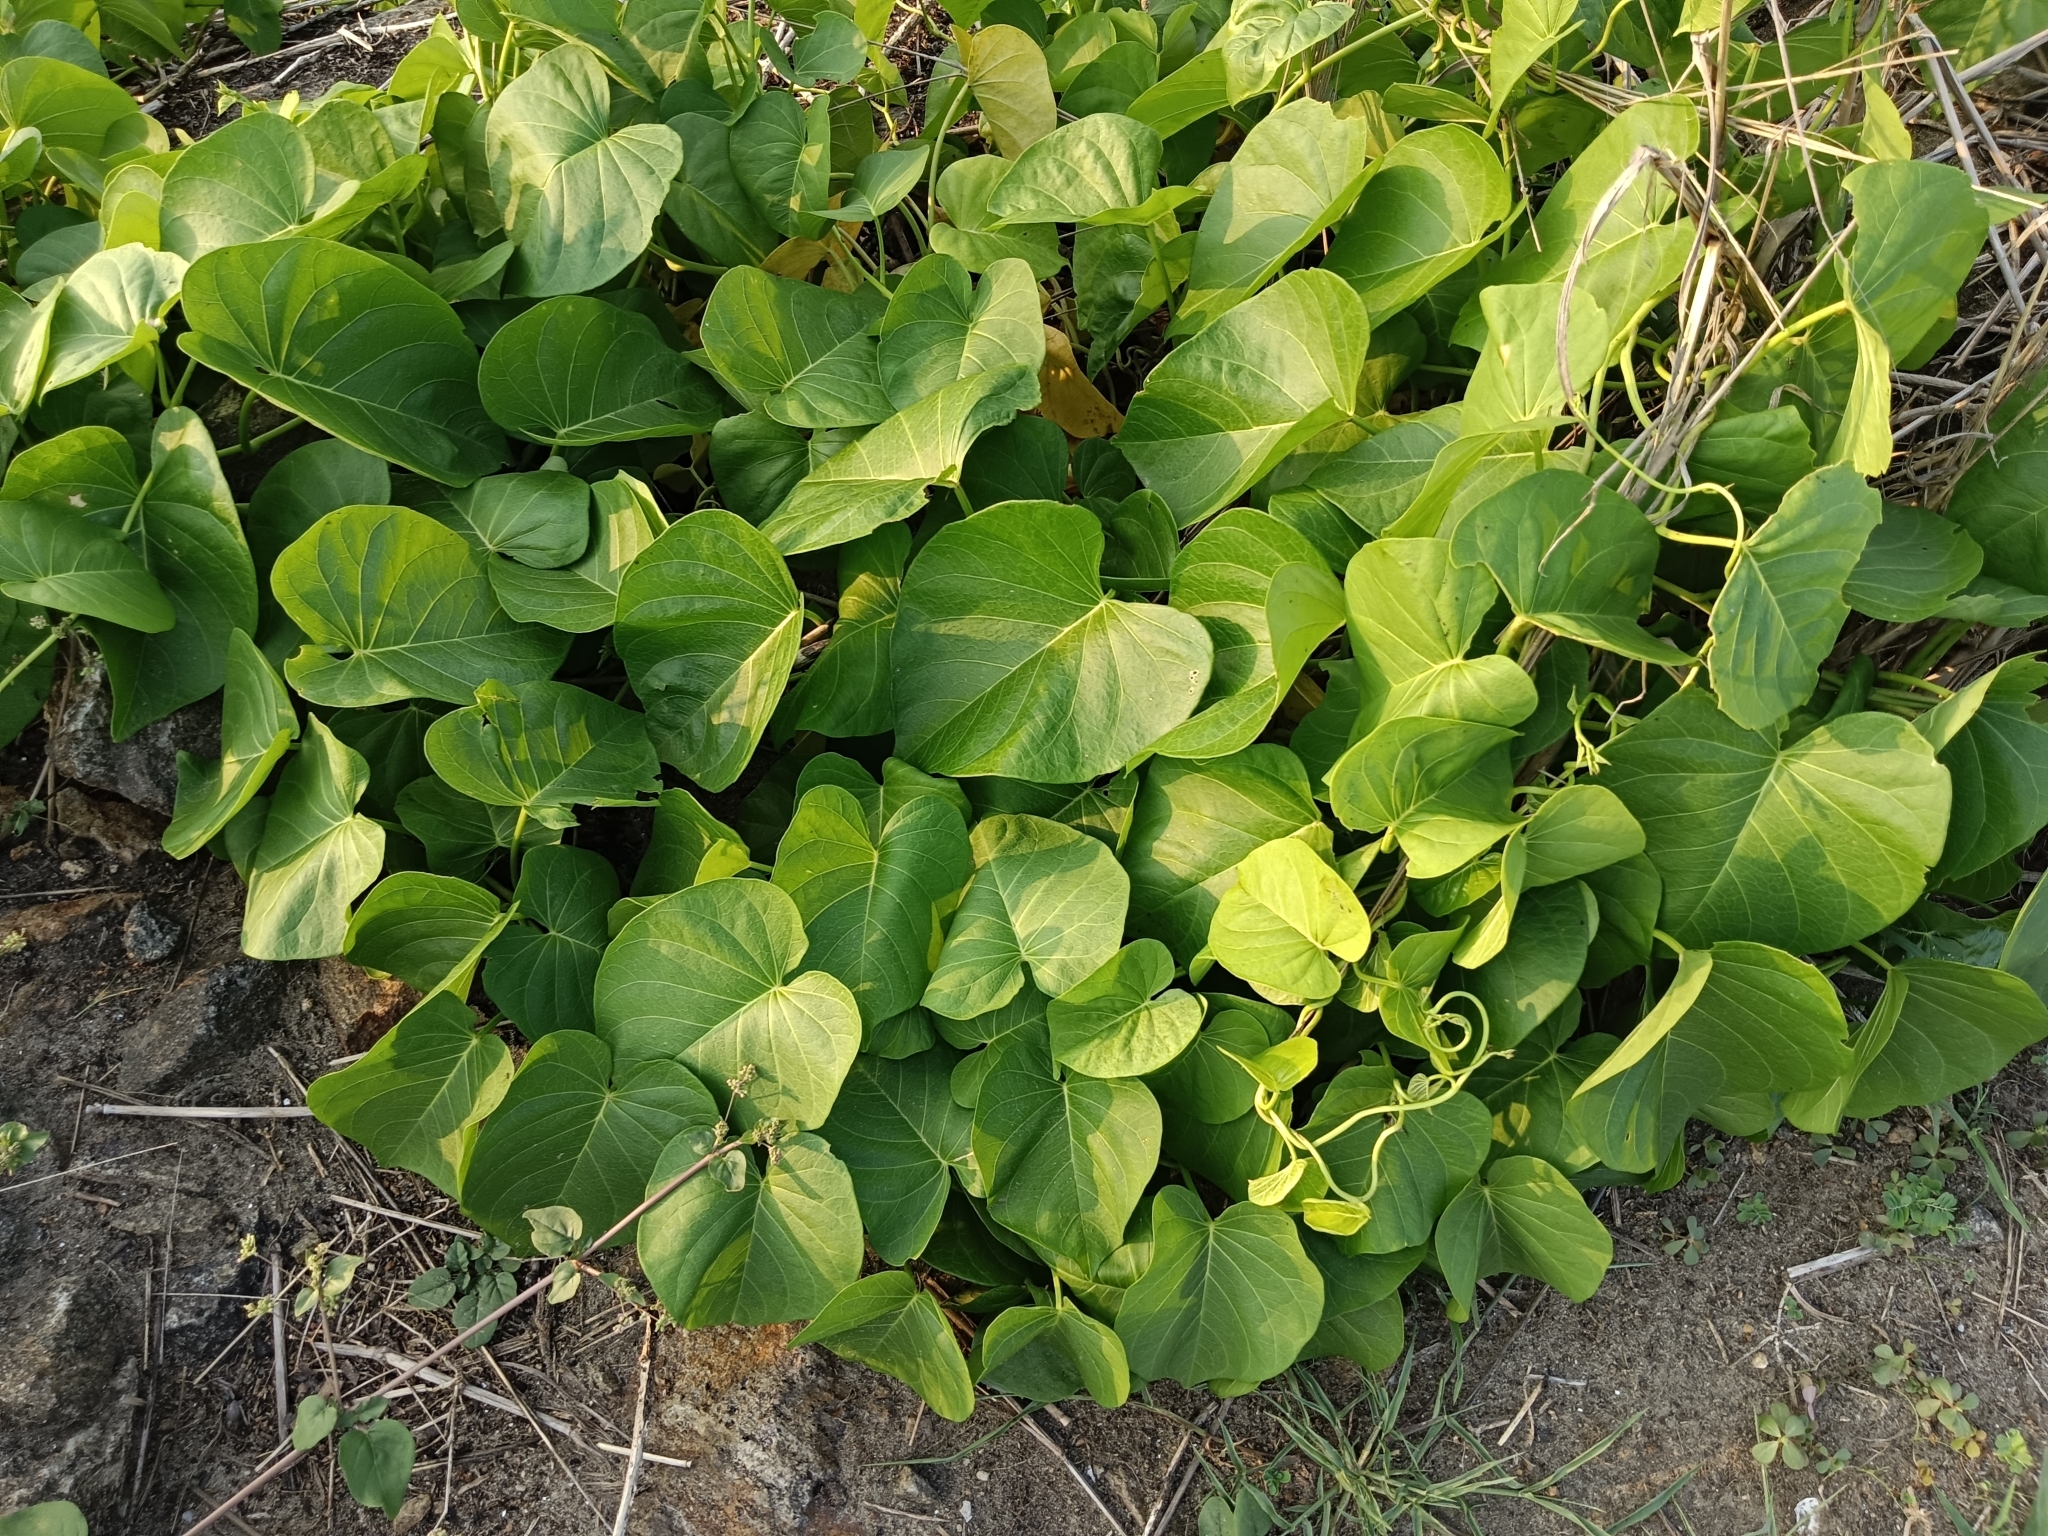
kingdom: Plantae
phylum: Tracheophyta
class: Magnoliopsida
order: Solanales
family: Convolvulaceae
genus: Ipomoea
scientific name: Ipomoea violacea
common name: Beach moonflower
